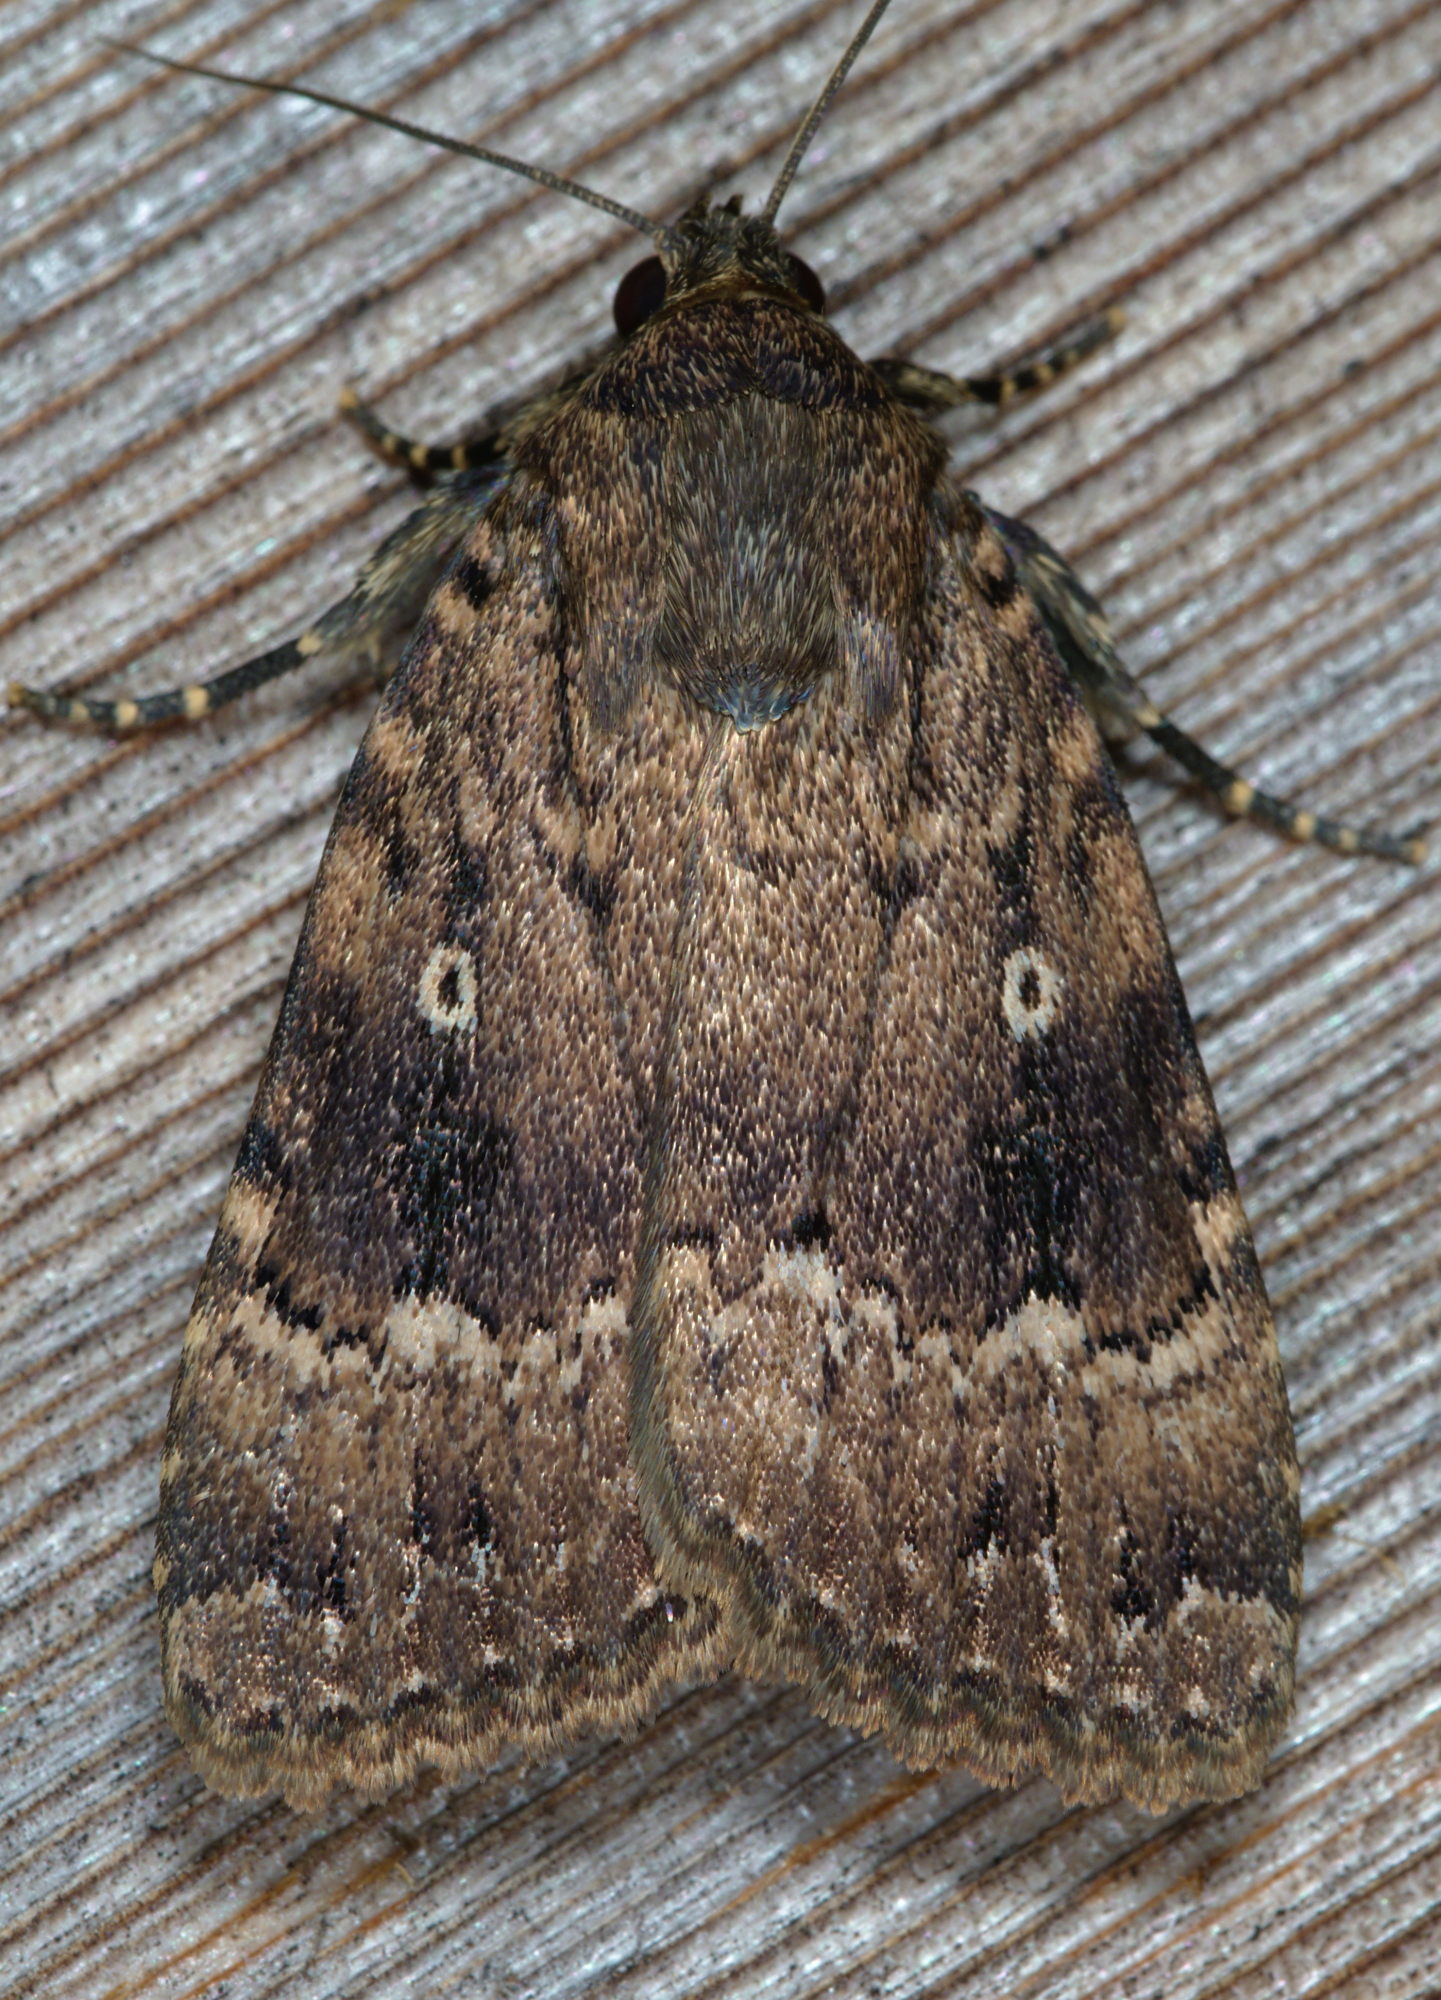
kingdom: Animalia
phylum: Arthropoda
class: Insecta
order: Lepidoptera
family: Noctuidae
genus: Amphipyra
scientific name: Amphipyra pyramidea
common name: Copper underwing
